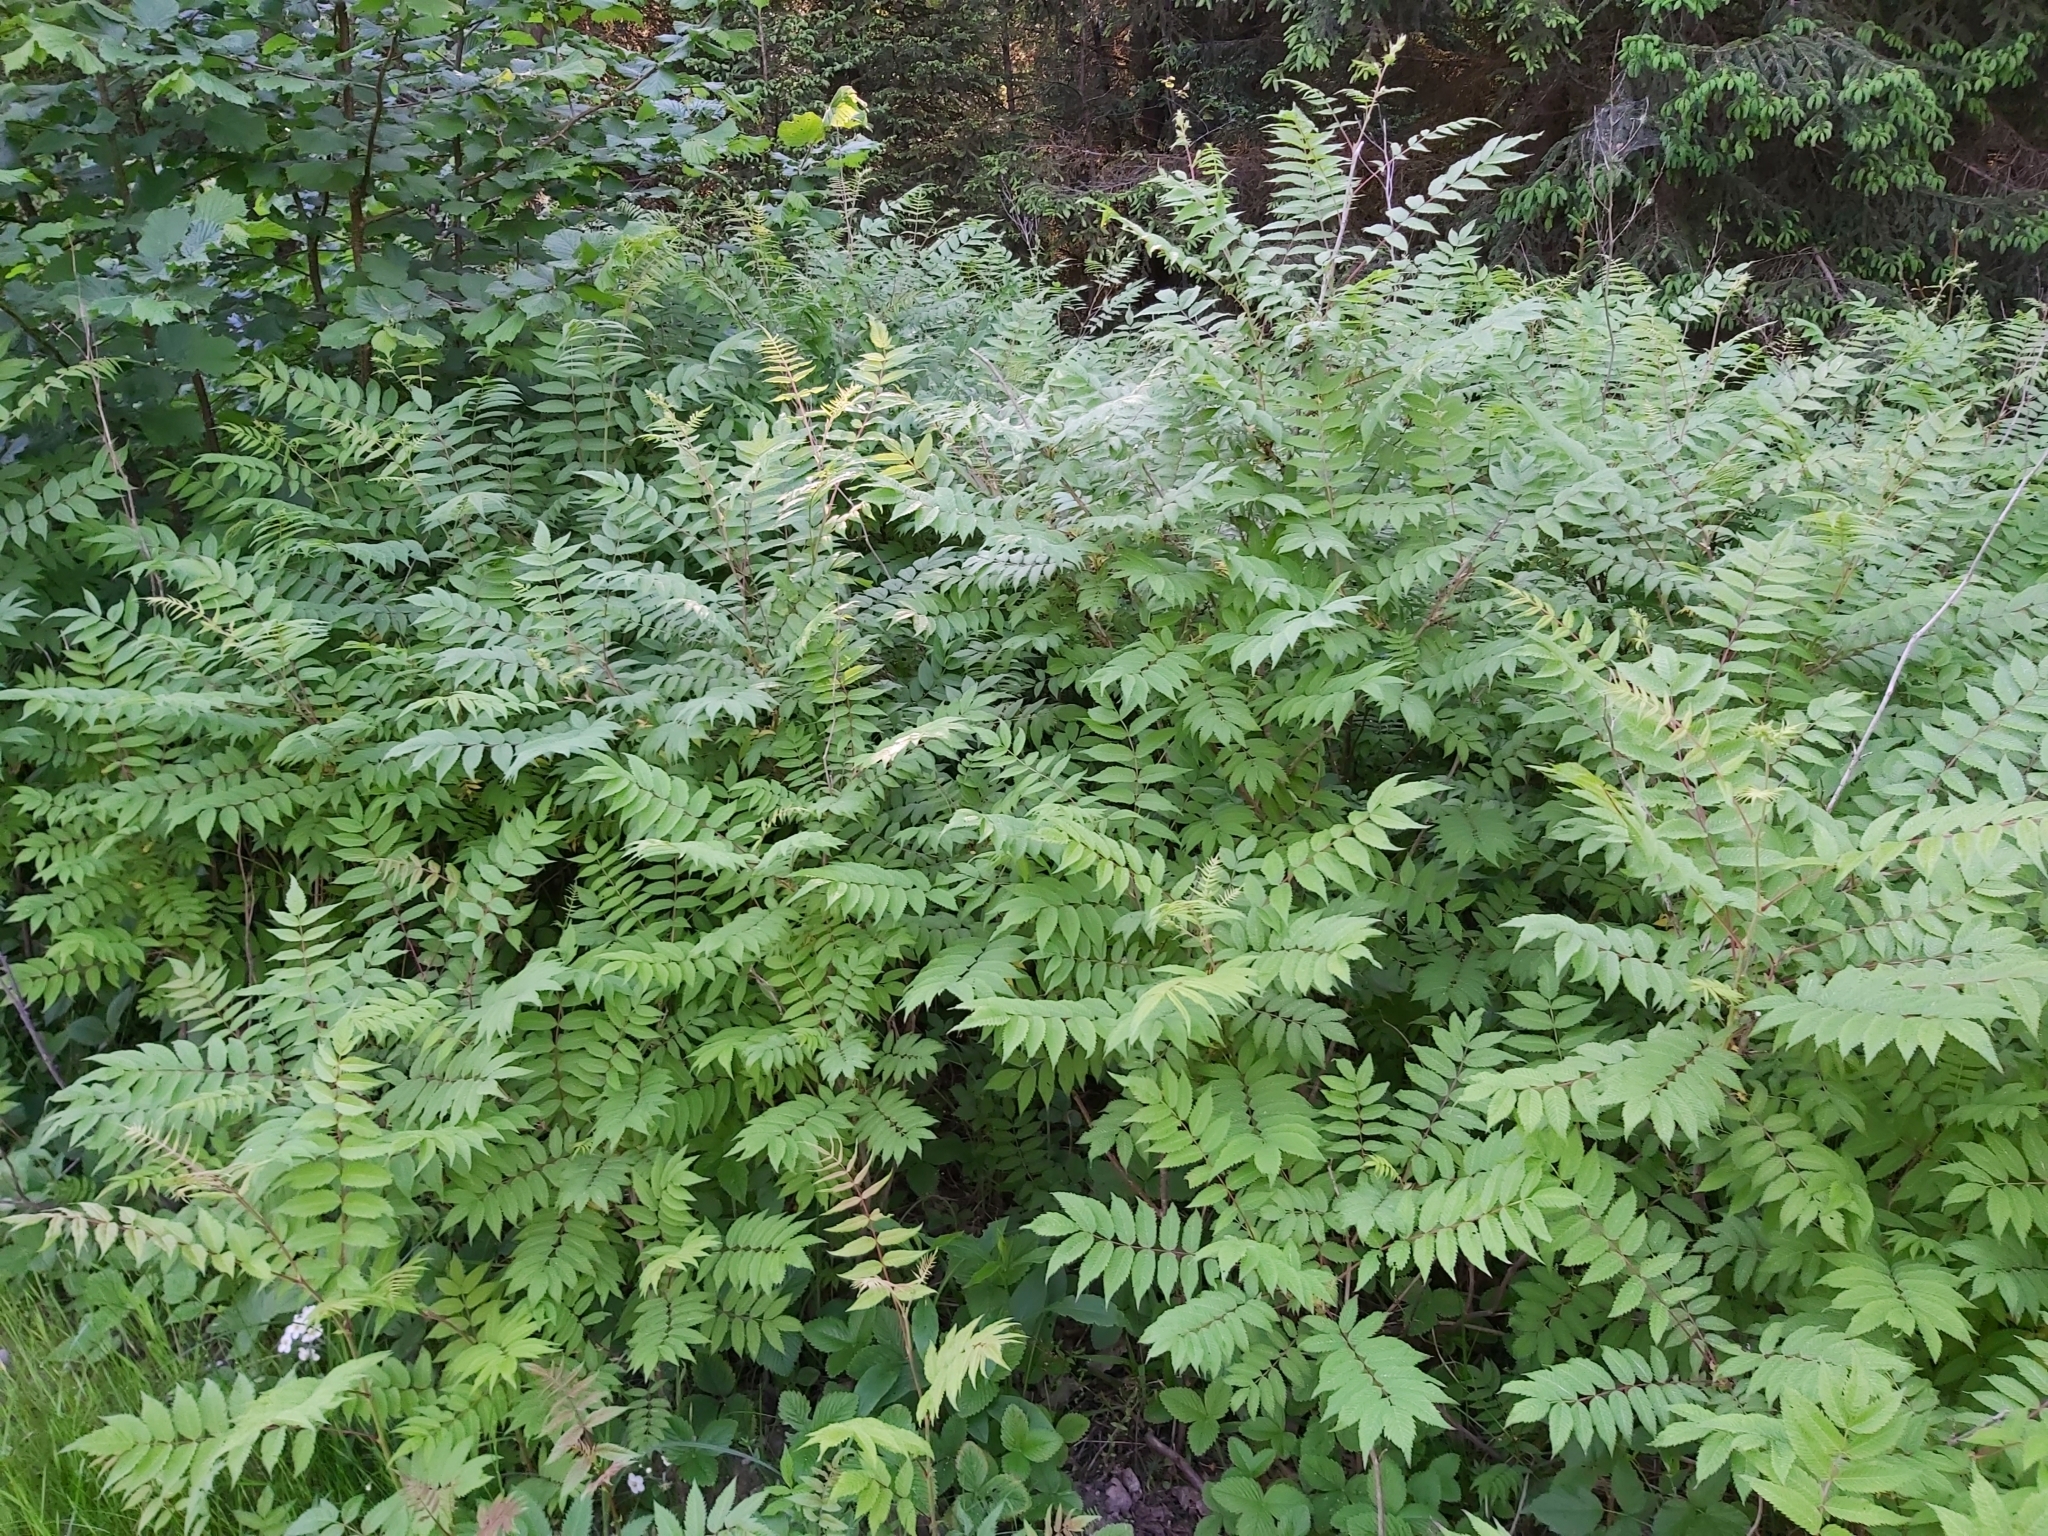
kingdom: Plantae
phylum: Tracheophyta
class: Magnoliopsida
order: Rosales
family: Rosaceae
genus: Sorbaria
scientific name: Sorbaria sorbifolia
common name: False spiraea
